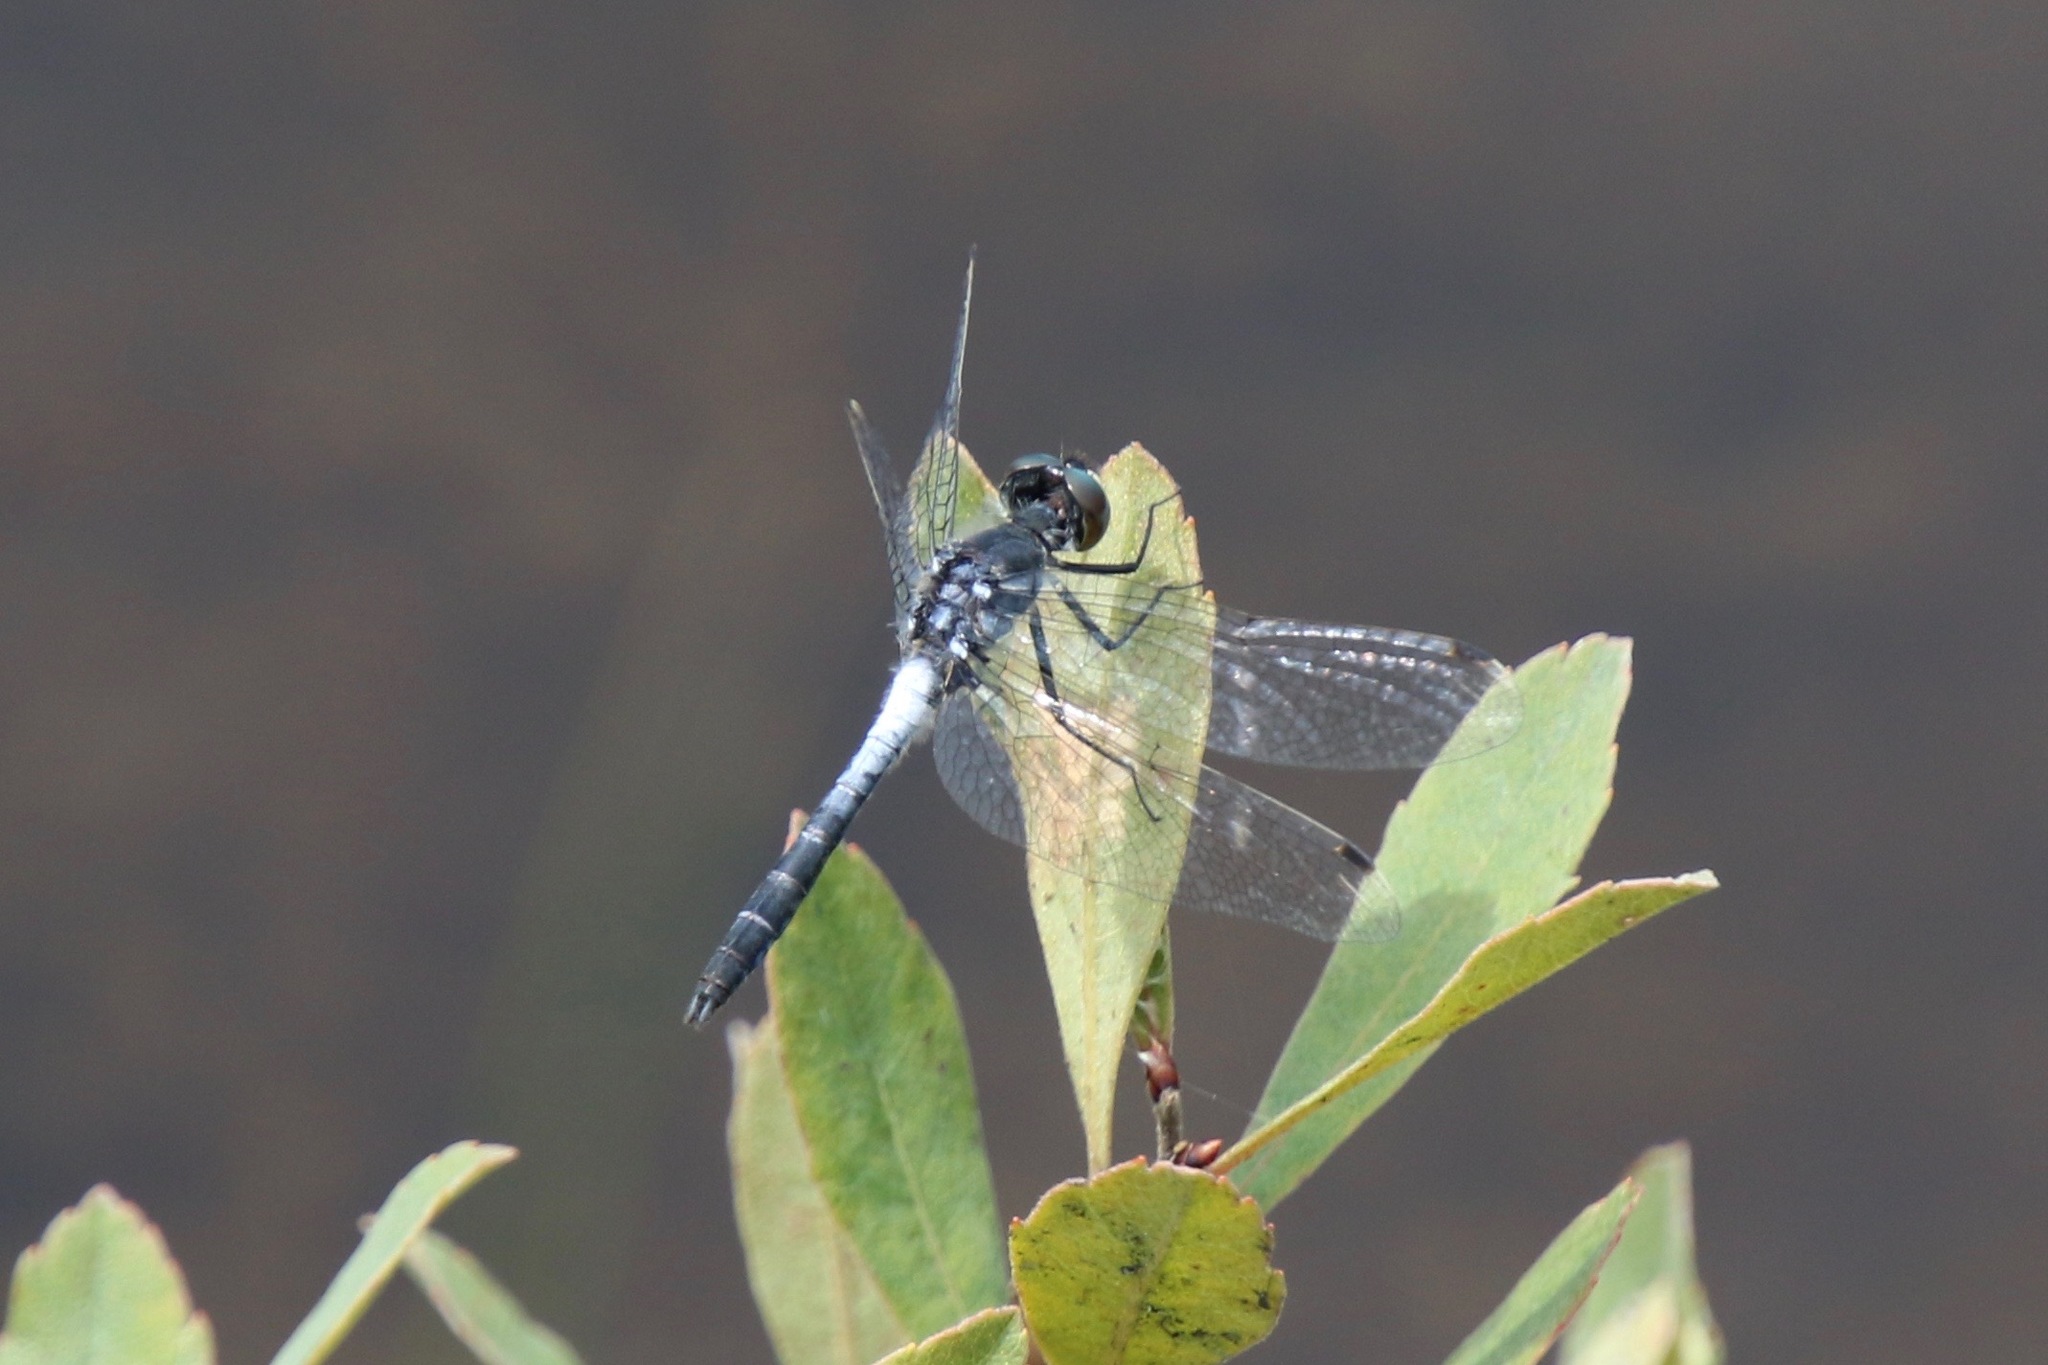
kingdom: Animalia
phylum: Arthropoda
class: Insecta
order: Odonata
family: Libellulidae
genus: Leucorrhinia
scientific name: Leucorrhinia frigida
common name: Frosted whiteface
